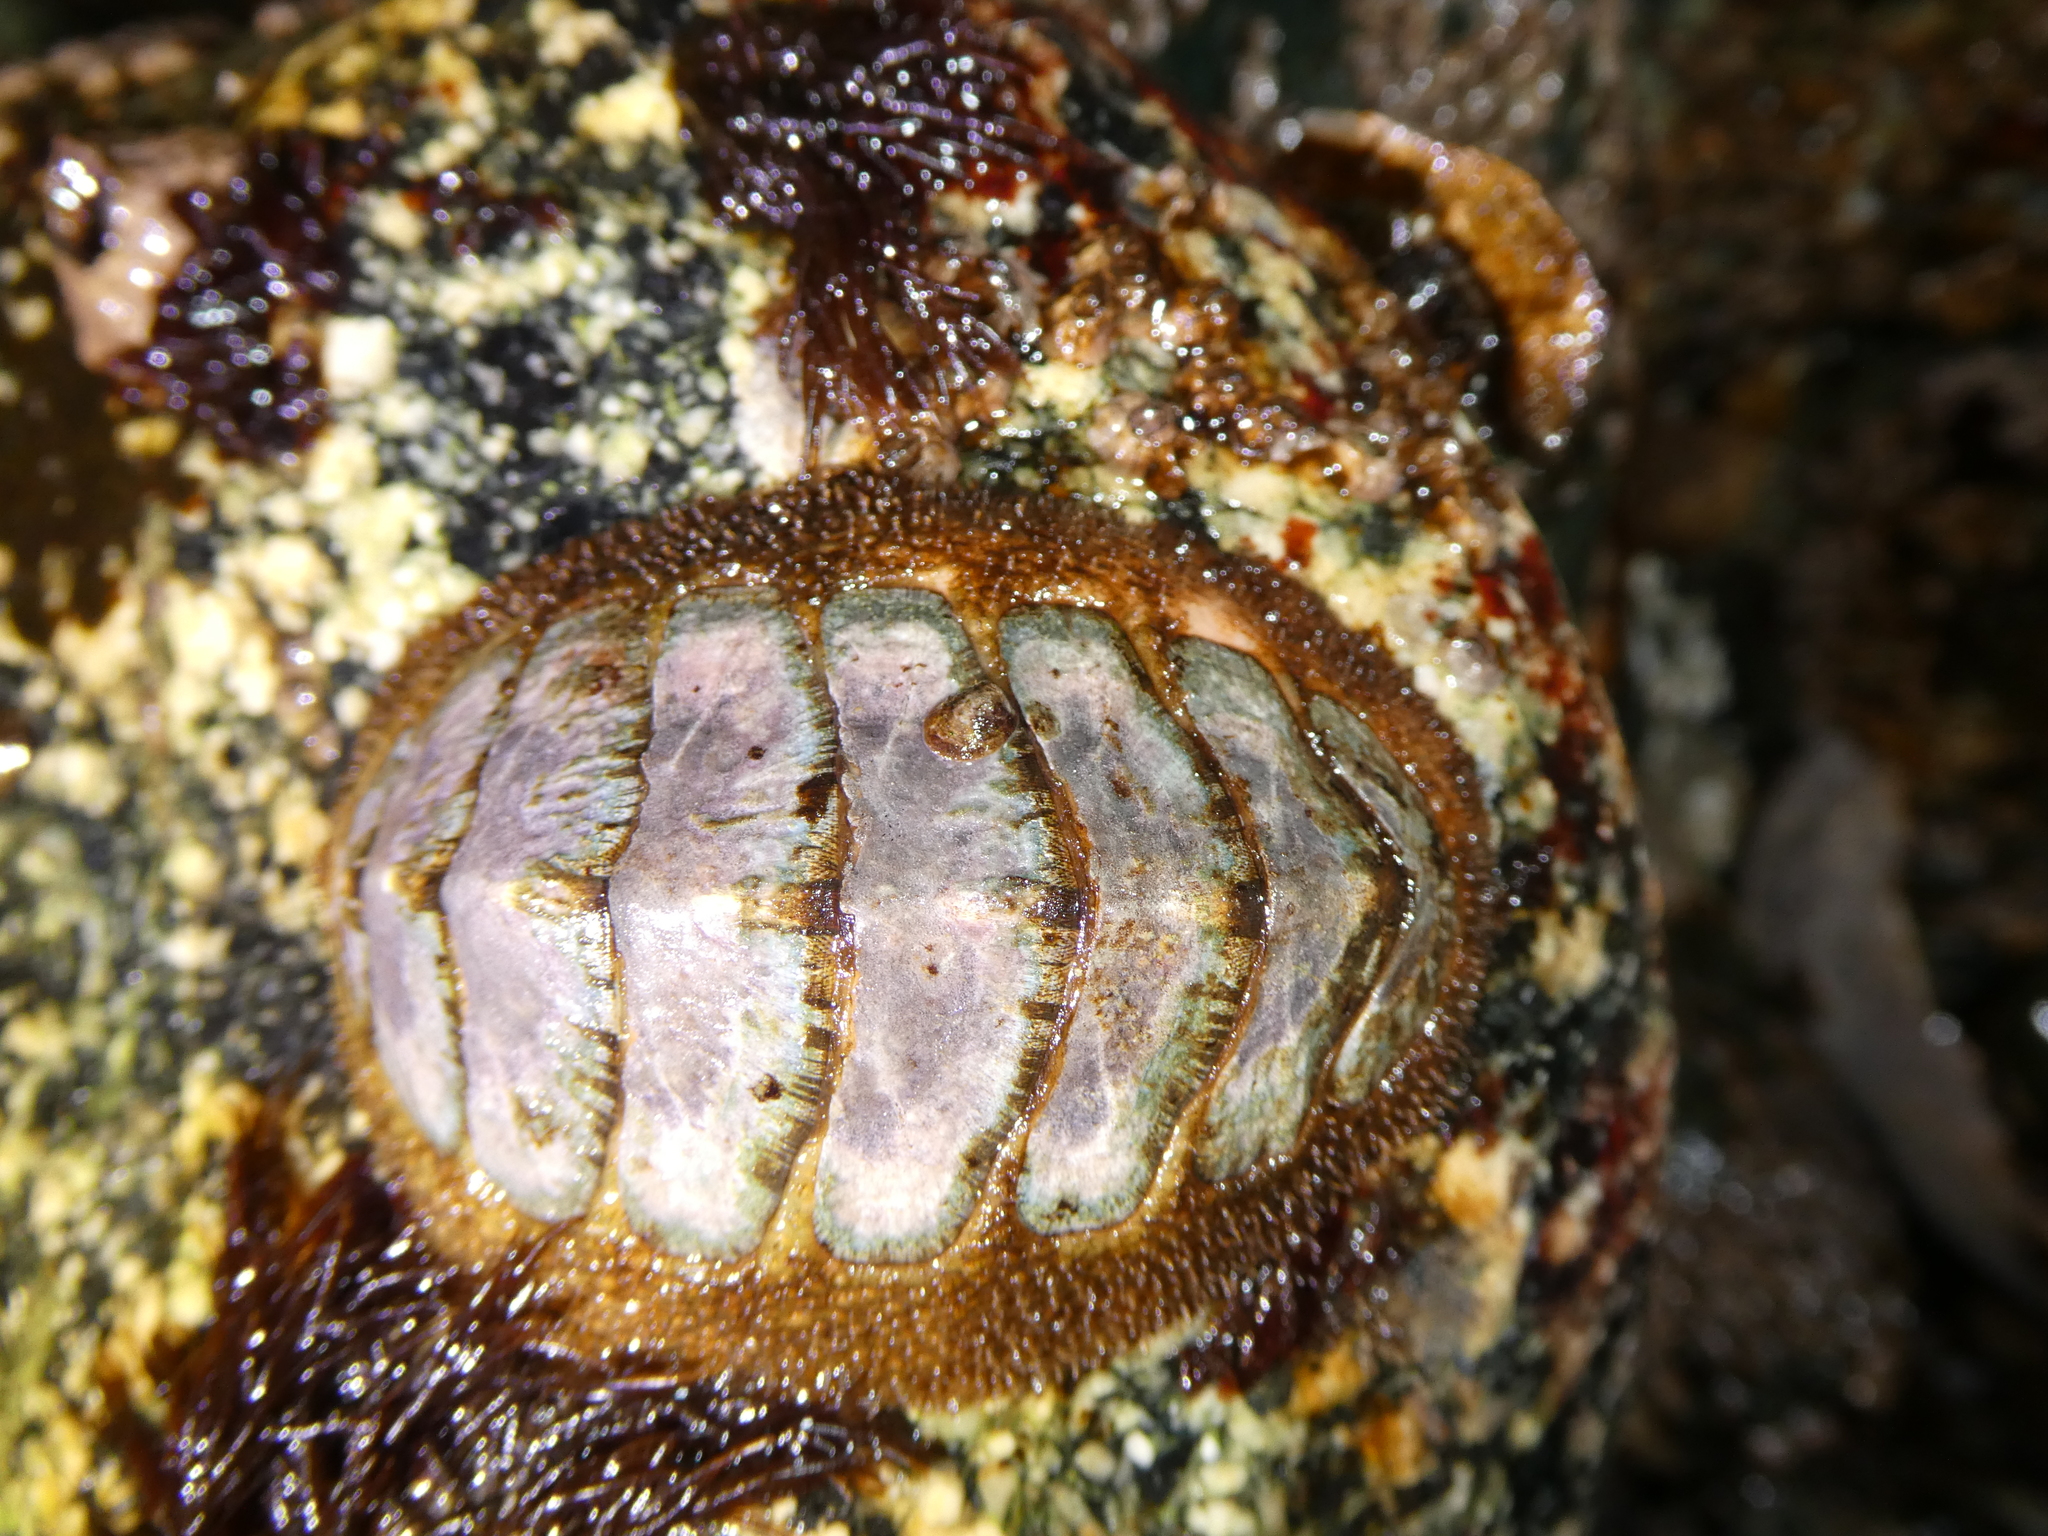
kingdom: Animalia
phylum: Mollusca
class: Polyplacophora
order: Chitonida
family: Mopaliidae
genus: Mopalia
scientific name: Mopalia lignosa
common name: Woody chiton
